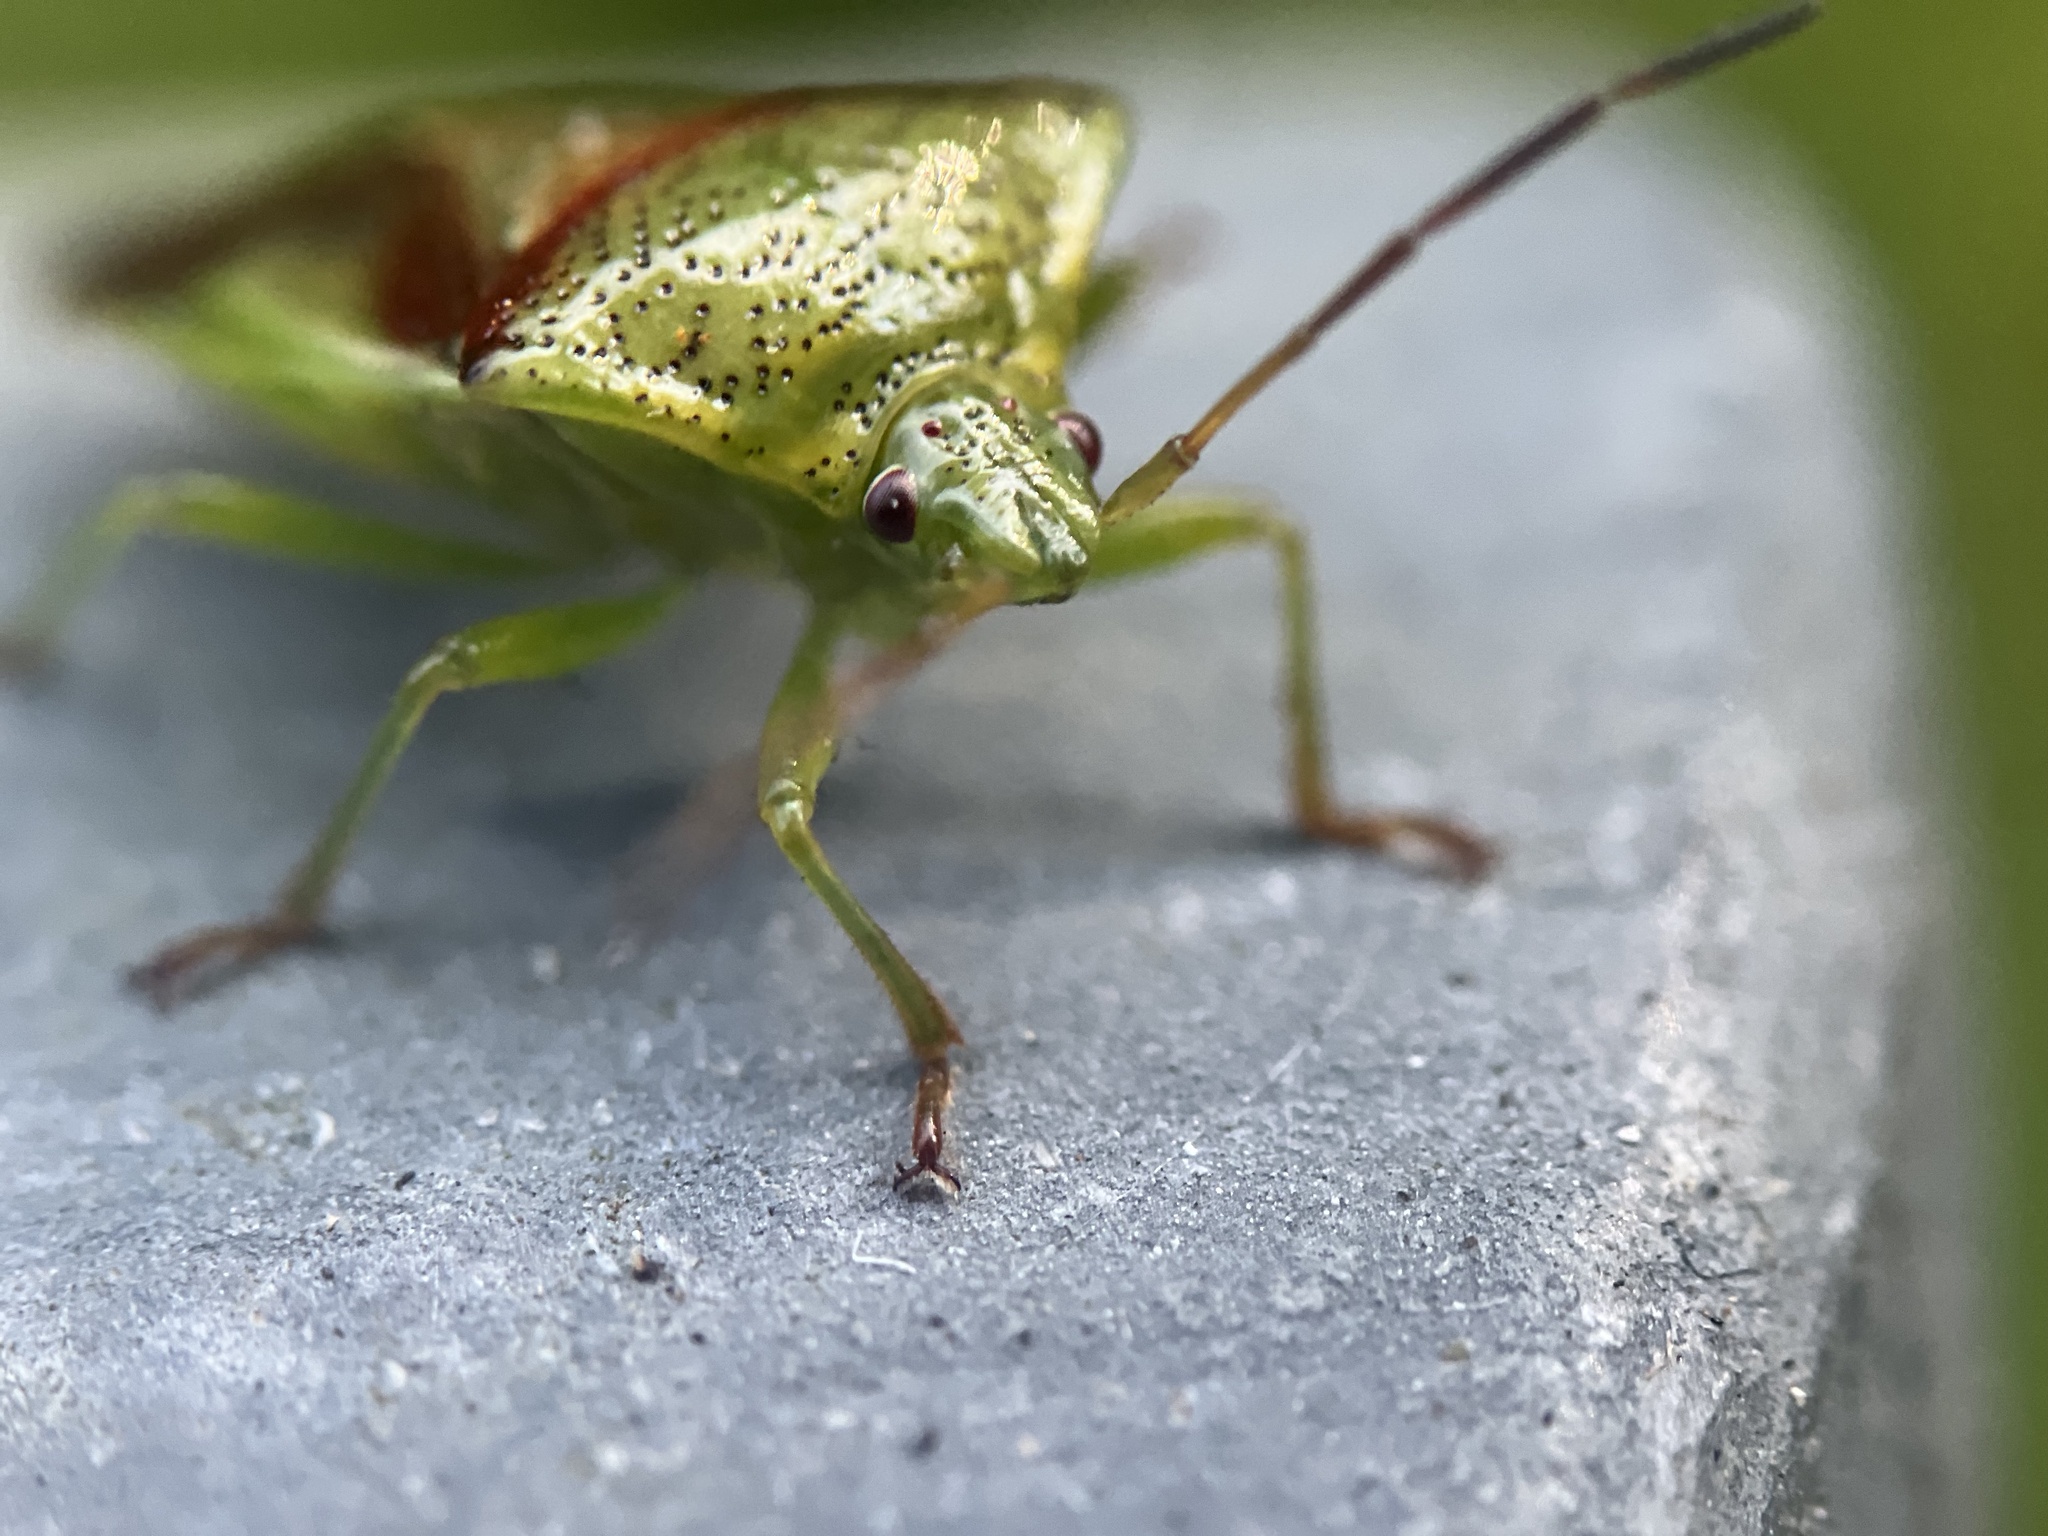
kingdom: Animalia
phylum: Arthropoda
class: Insecta
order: Hemiptera
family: Acanthosomatidae
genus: Elasmostethus
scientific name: Elasmostethus cruciatus
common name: Red-cross shield bug
